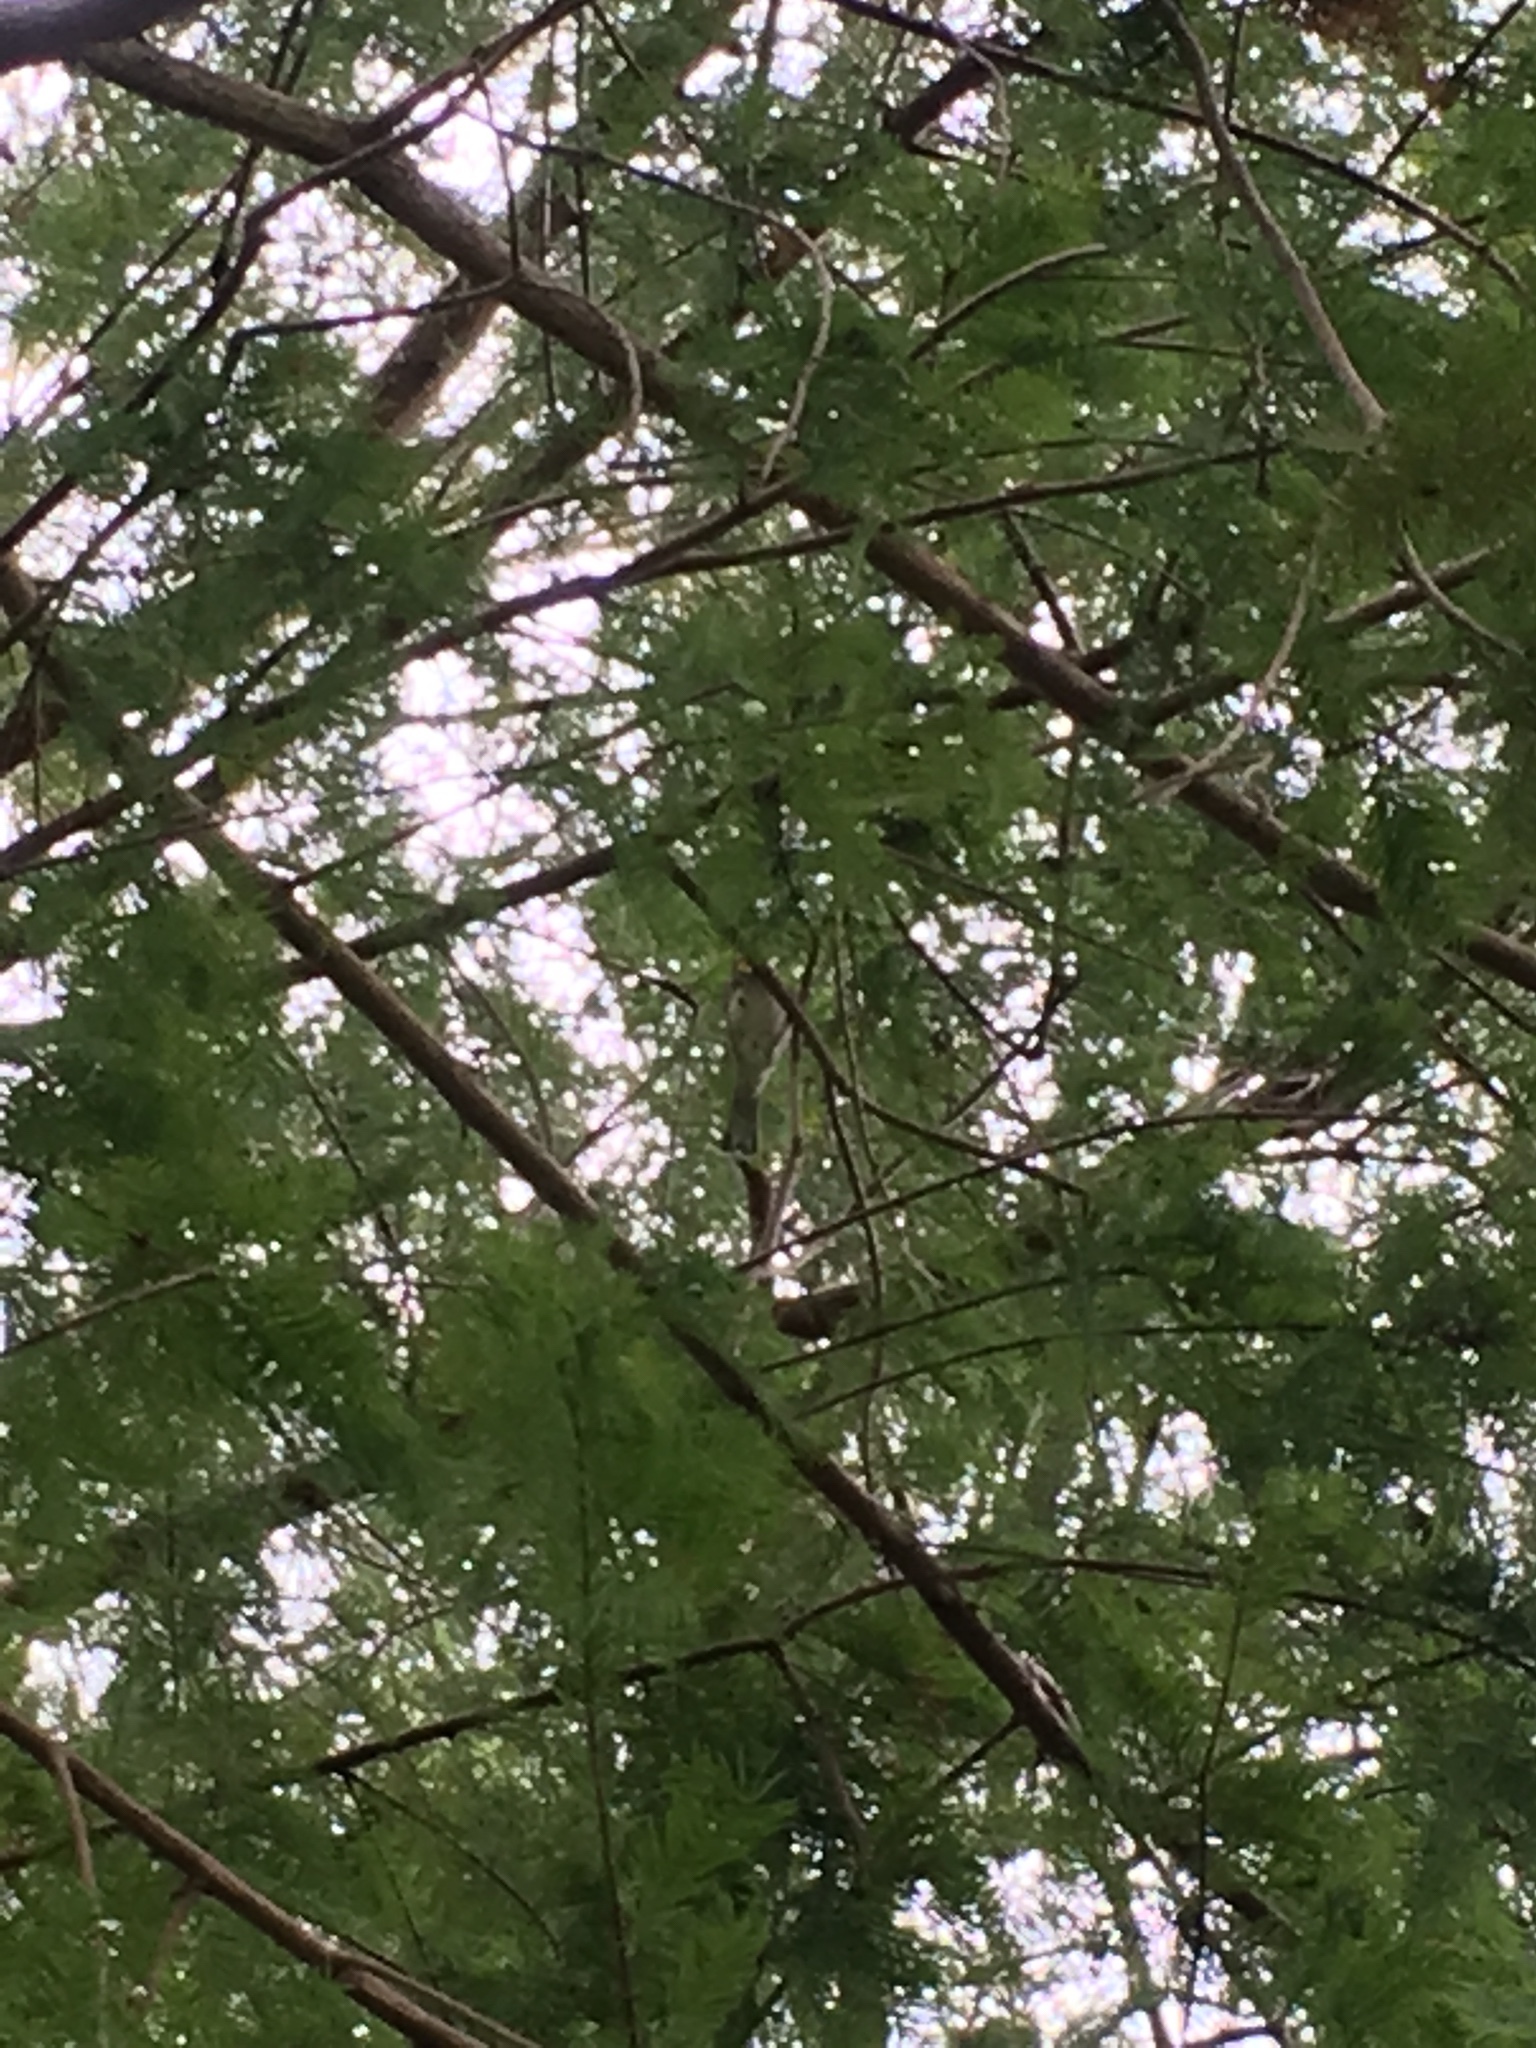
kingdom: Animalia
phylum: Chordata
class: Aves
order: Passeriformes
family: Parulidae
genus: Setophaga
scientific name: Setophaga dominica
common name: Yellow-throated warbler
